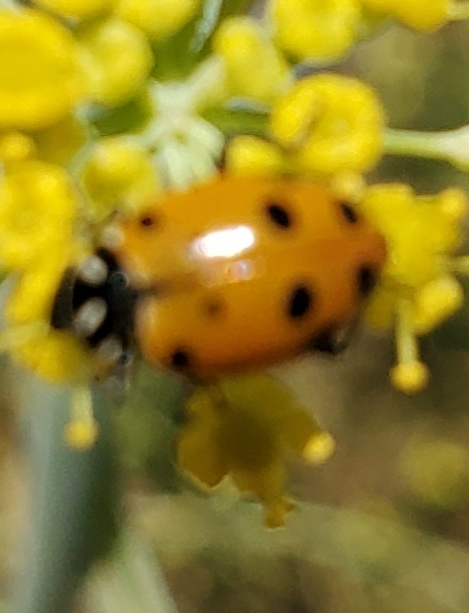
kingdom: Animalia
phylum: Arthropoda
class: Insecta
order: Coleoptera
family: Coccinellidae
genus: Hippodamia
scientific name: Hippodamia convergens
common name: Convergent lady beetle
